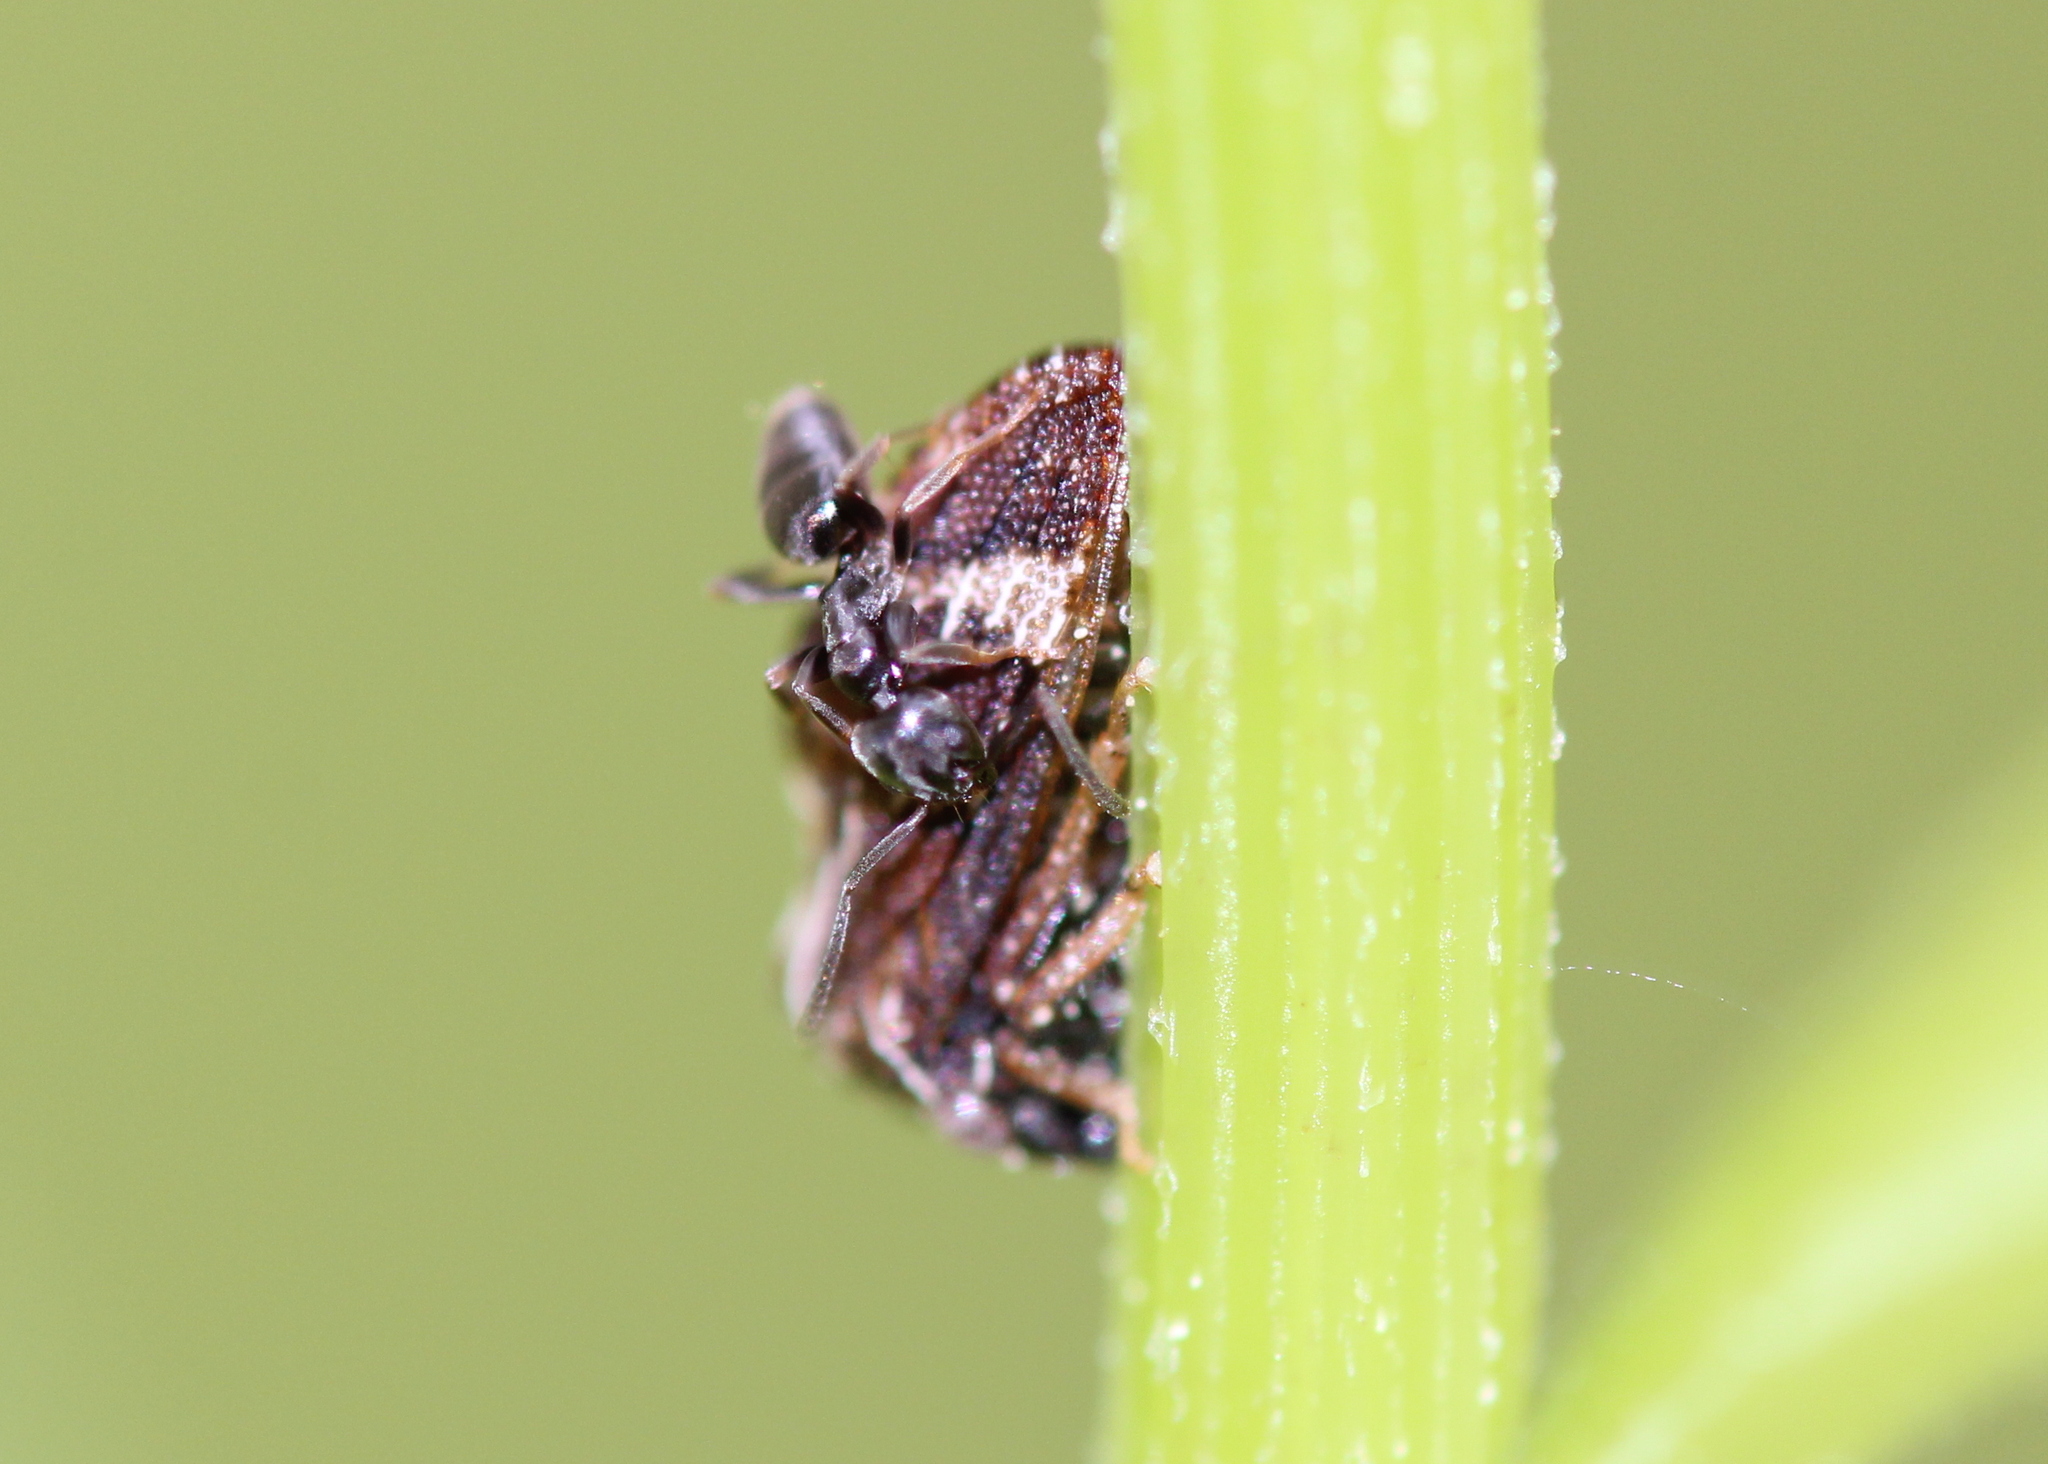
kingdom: Animalia
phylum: Arthropoda
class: Insecta
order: Hymenoptera
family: Formicidae
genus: Tapinoma
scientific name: Tapinoma sessile
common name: Odorous house ant
